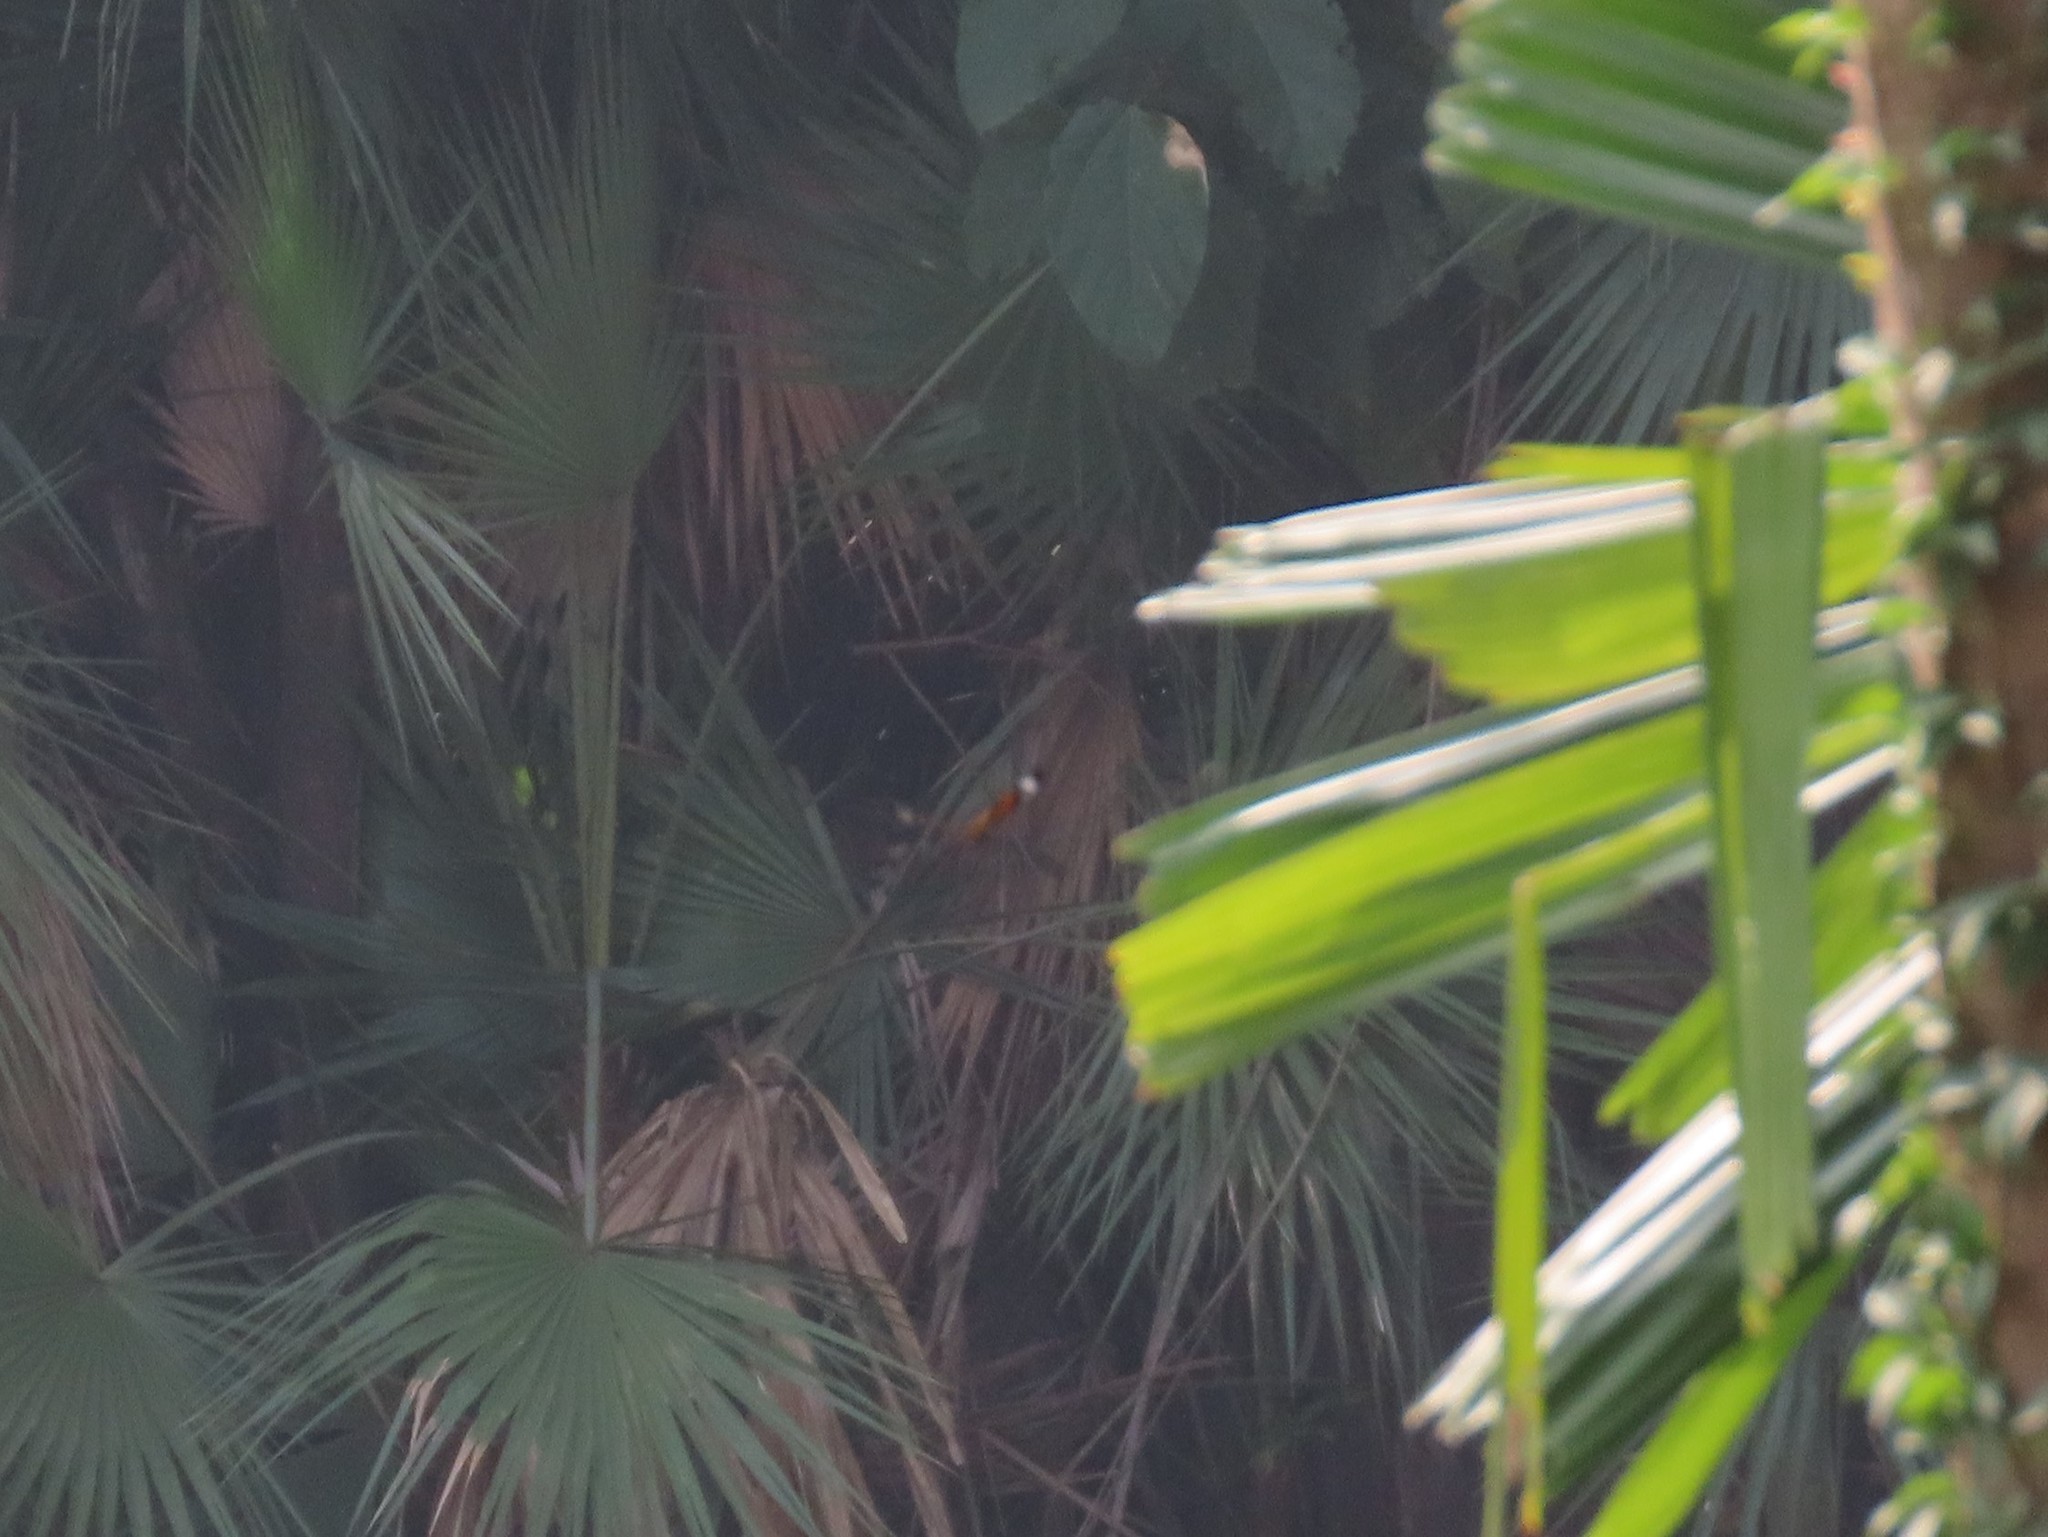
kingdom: Animalia
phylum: Arthropoda
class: Insecta
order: Lepidoptera
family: Nymphalidae
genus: Danaus
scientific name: Danaus genutia
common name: Common tiger butterfly
